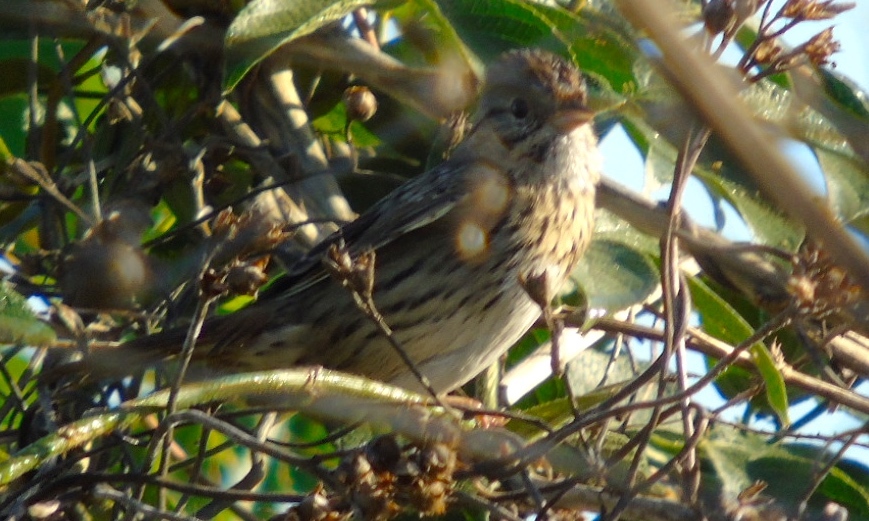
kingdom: Animalia
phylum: Chordata
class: Aves
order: Passeriformes
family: Passerellidae
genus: Melospiza
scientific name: Melospiza lincolnii
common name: Lincoln's sparrow
